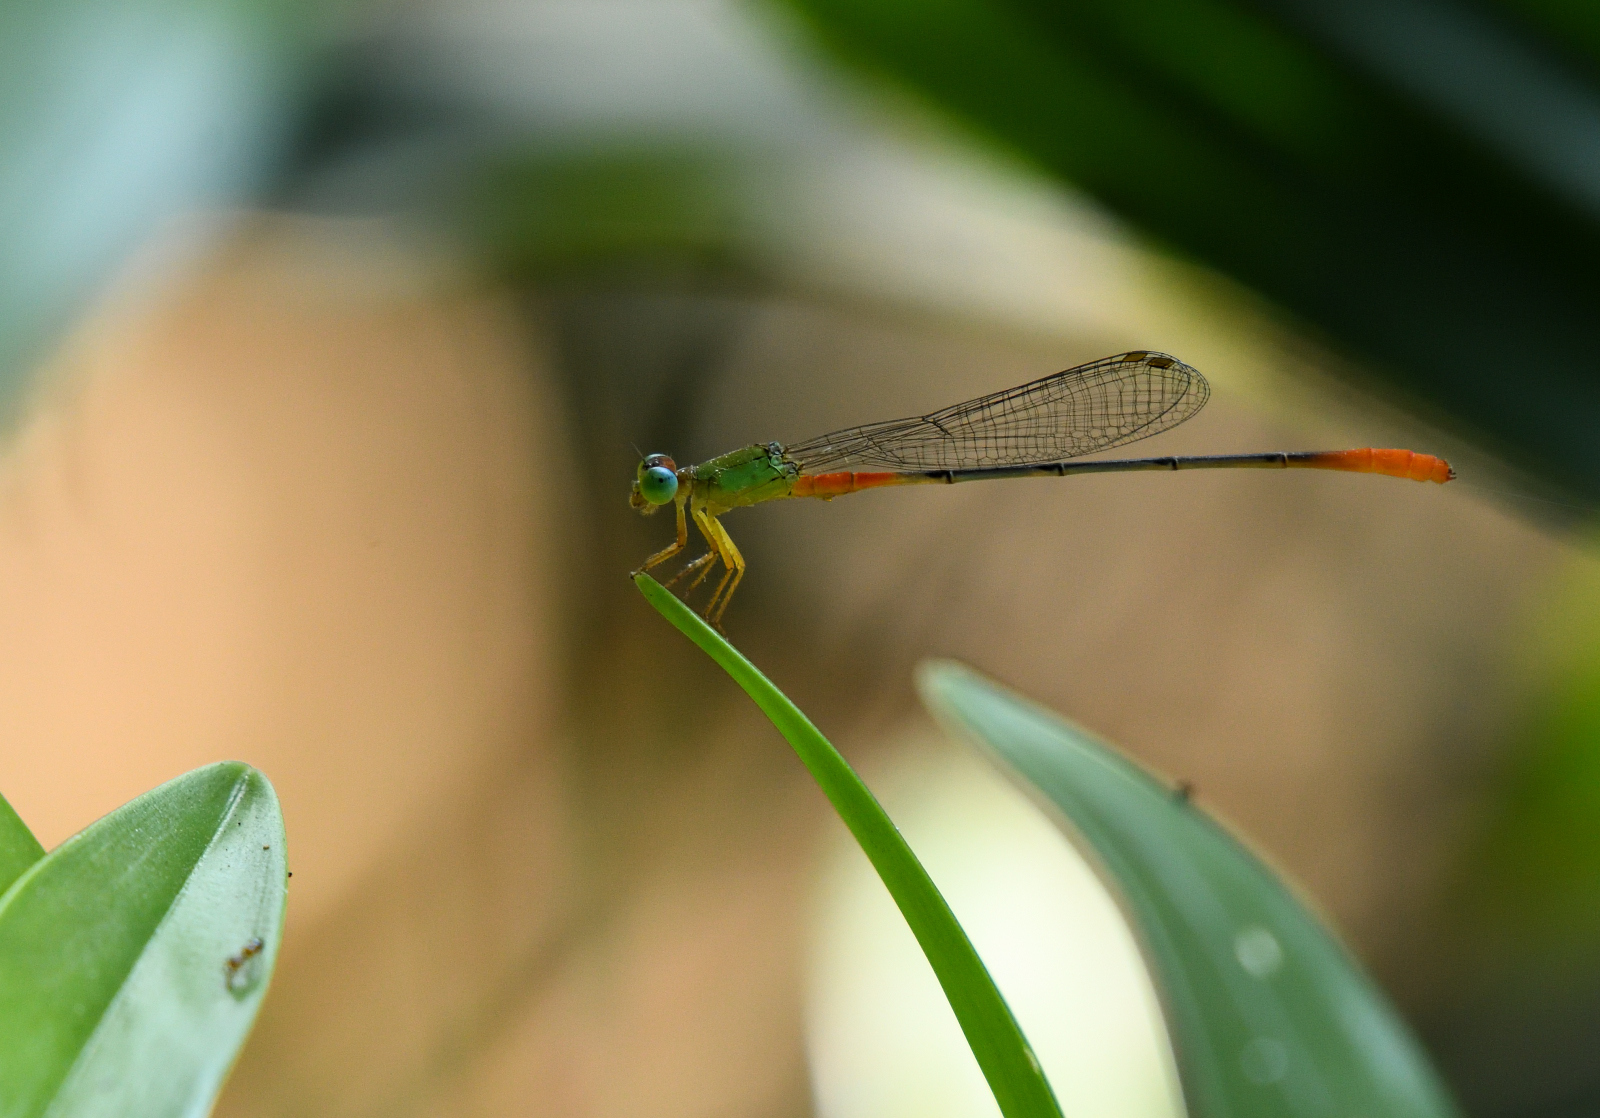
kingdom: Animalia
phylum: Arthropoda
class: Insecta
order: Odonata
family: Coenagrionidae
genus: Ceriagrion
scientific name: Ceriagrion cerinorubellum
